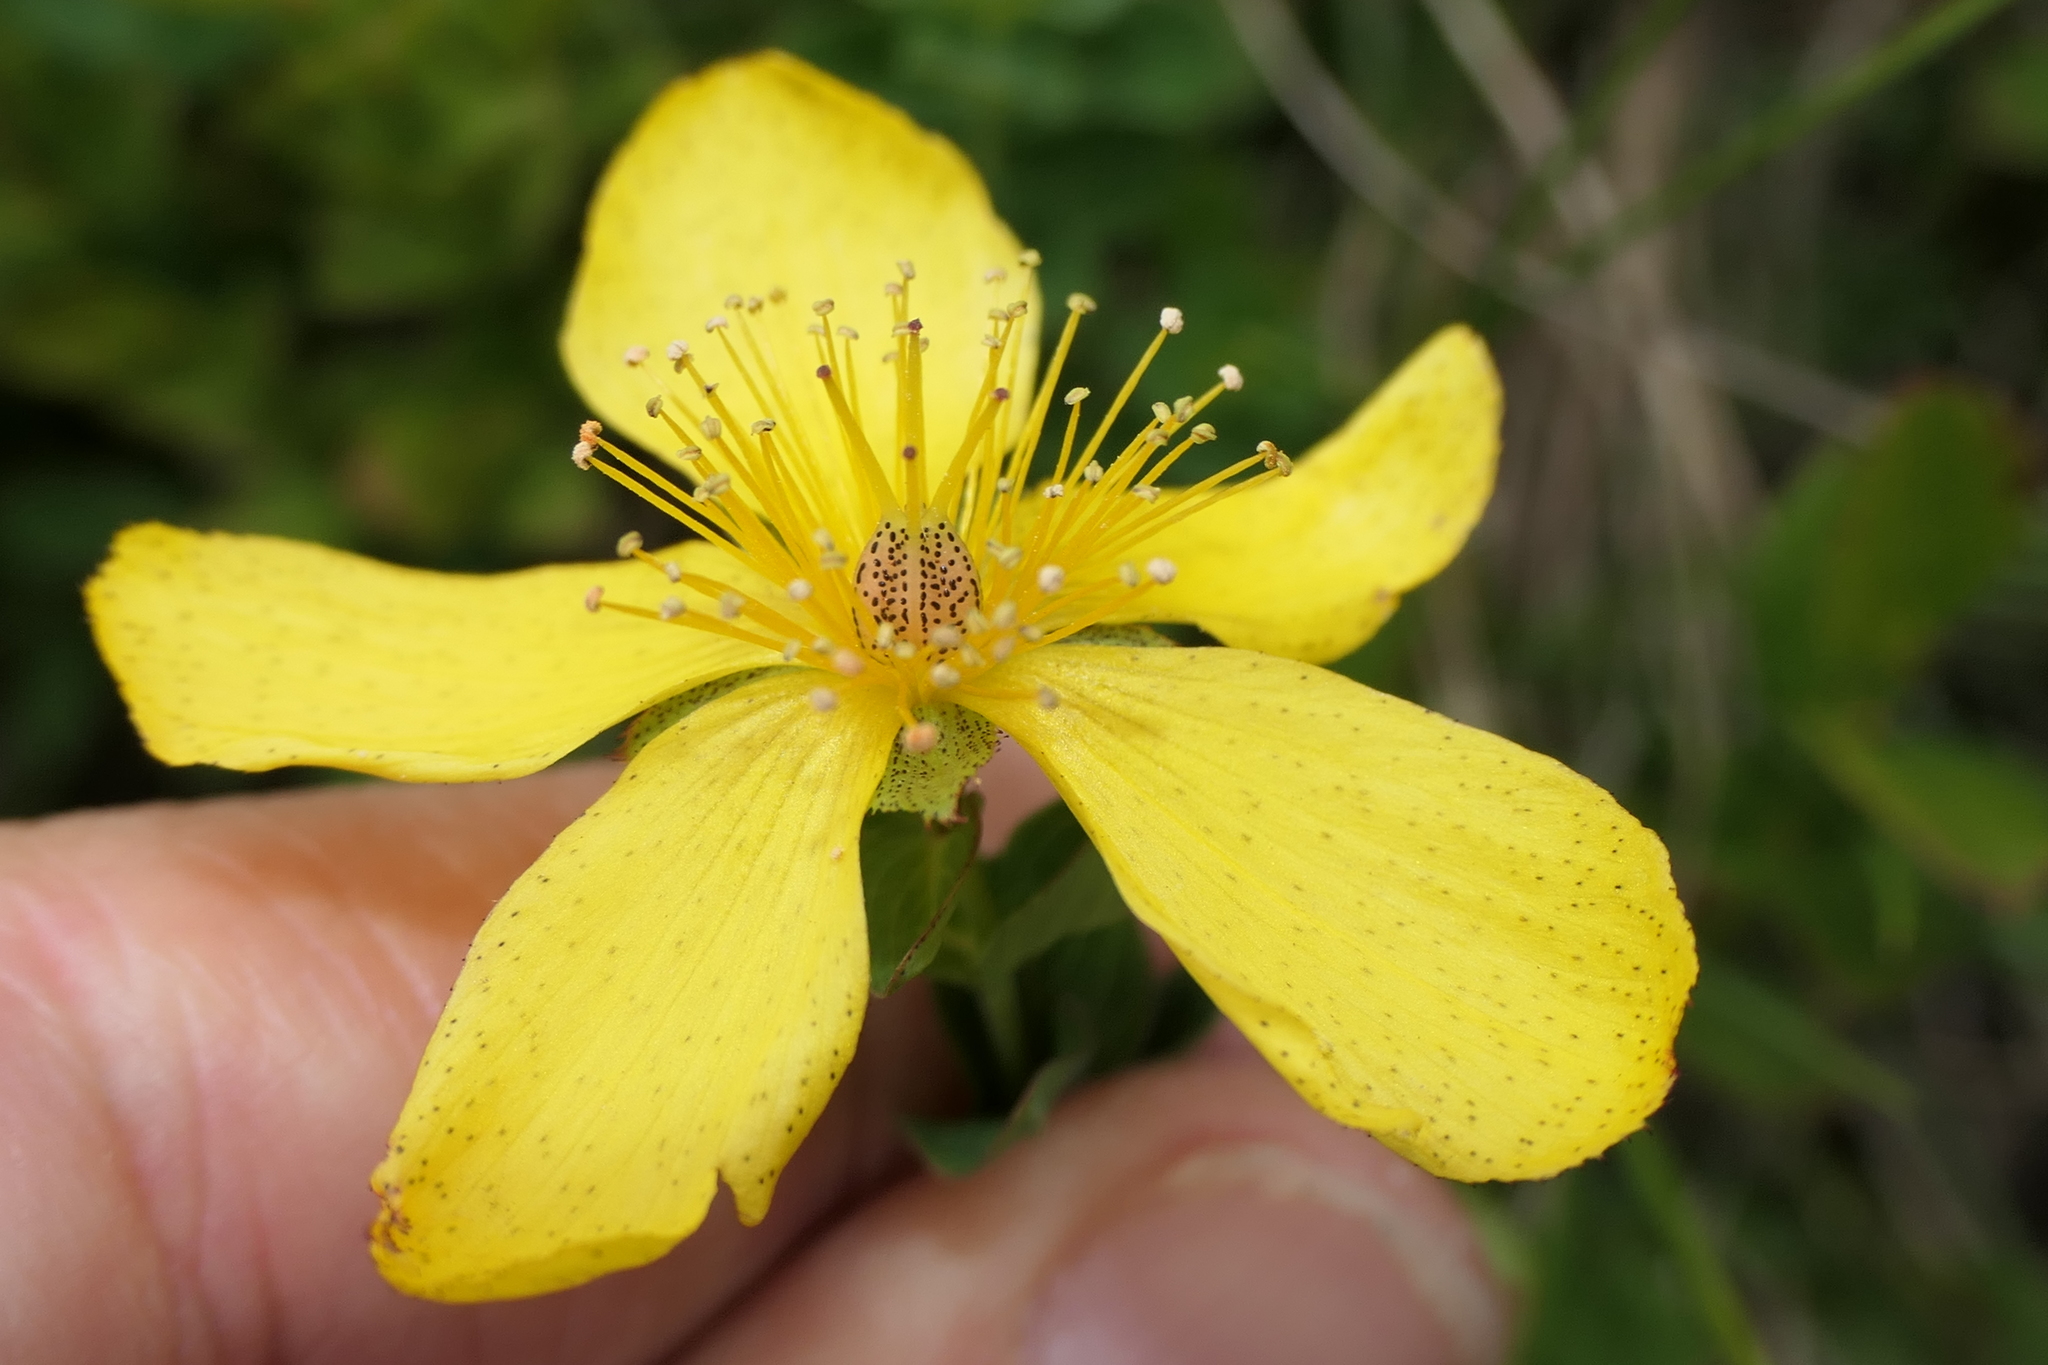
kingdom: Plantae
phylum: Tracheophyta
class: Magnoliopsida
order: Malpighiales
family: Hypericaceae
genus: Hypericum
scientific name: Hypericum richeri
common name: Alpine st john's-wort
